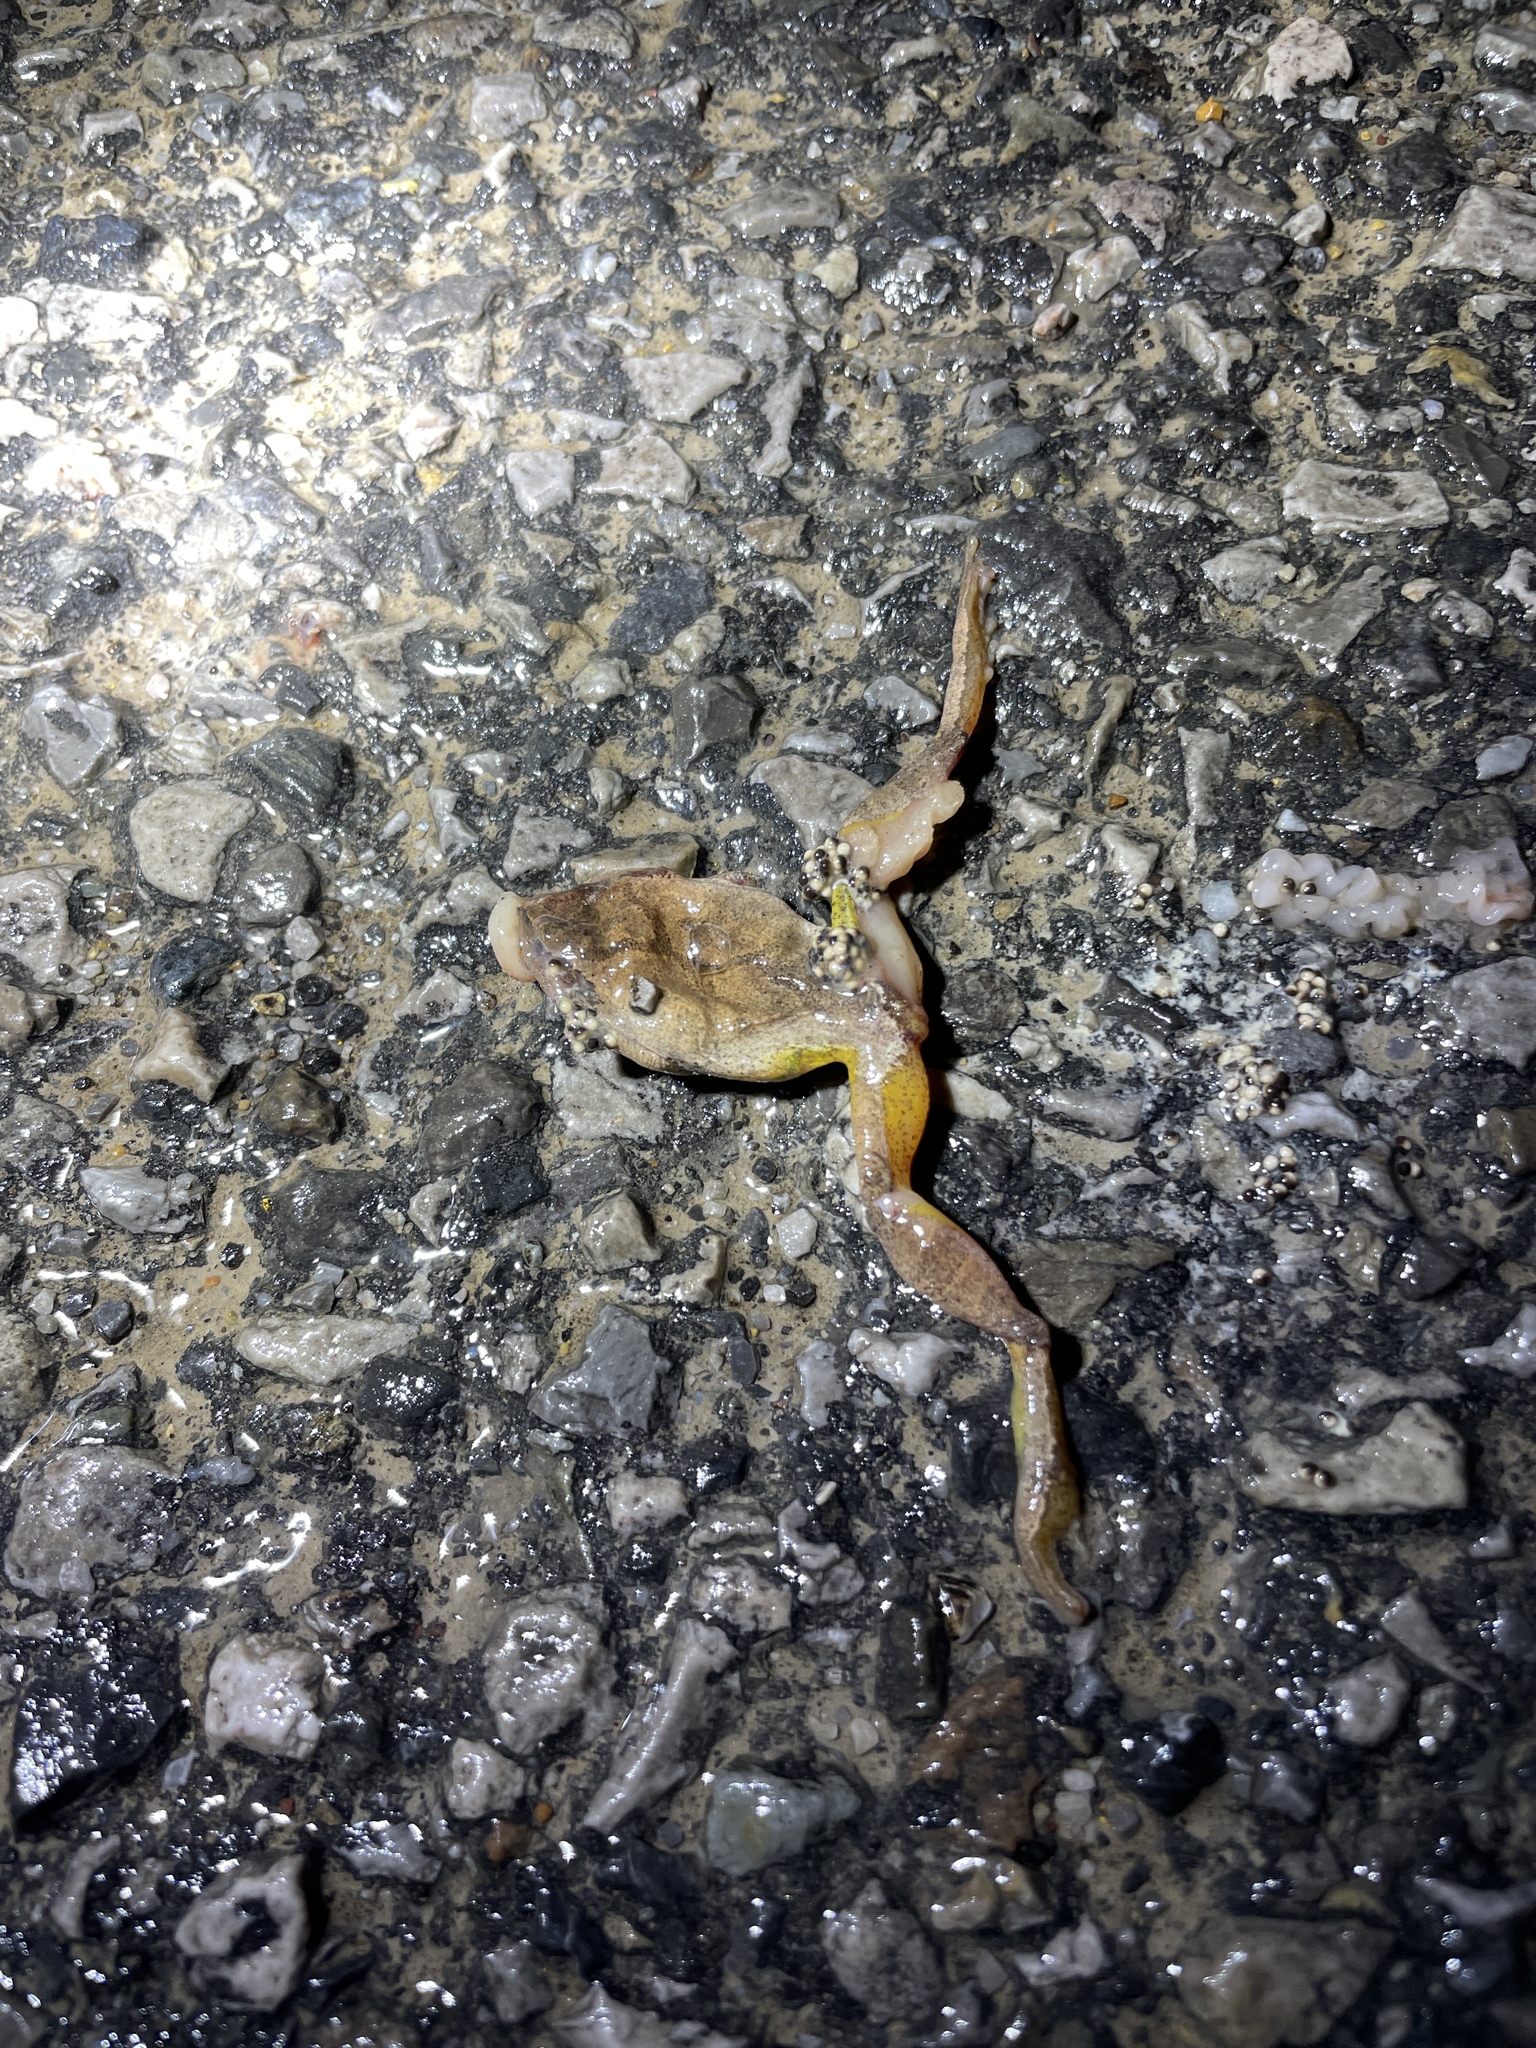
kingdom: Animalia
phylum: Chordata
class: Amphibia
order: Anura
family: Hylidae
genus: Pseudacris
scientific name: Pseudacris crucifer
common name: Spring peeper
